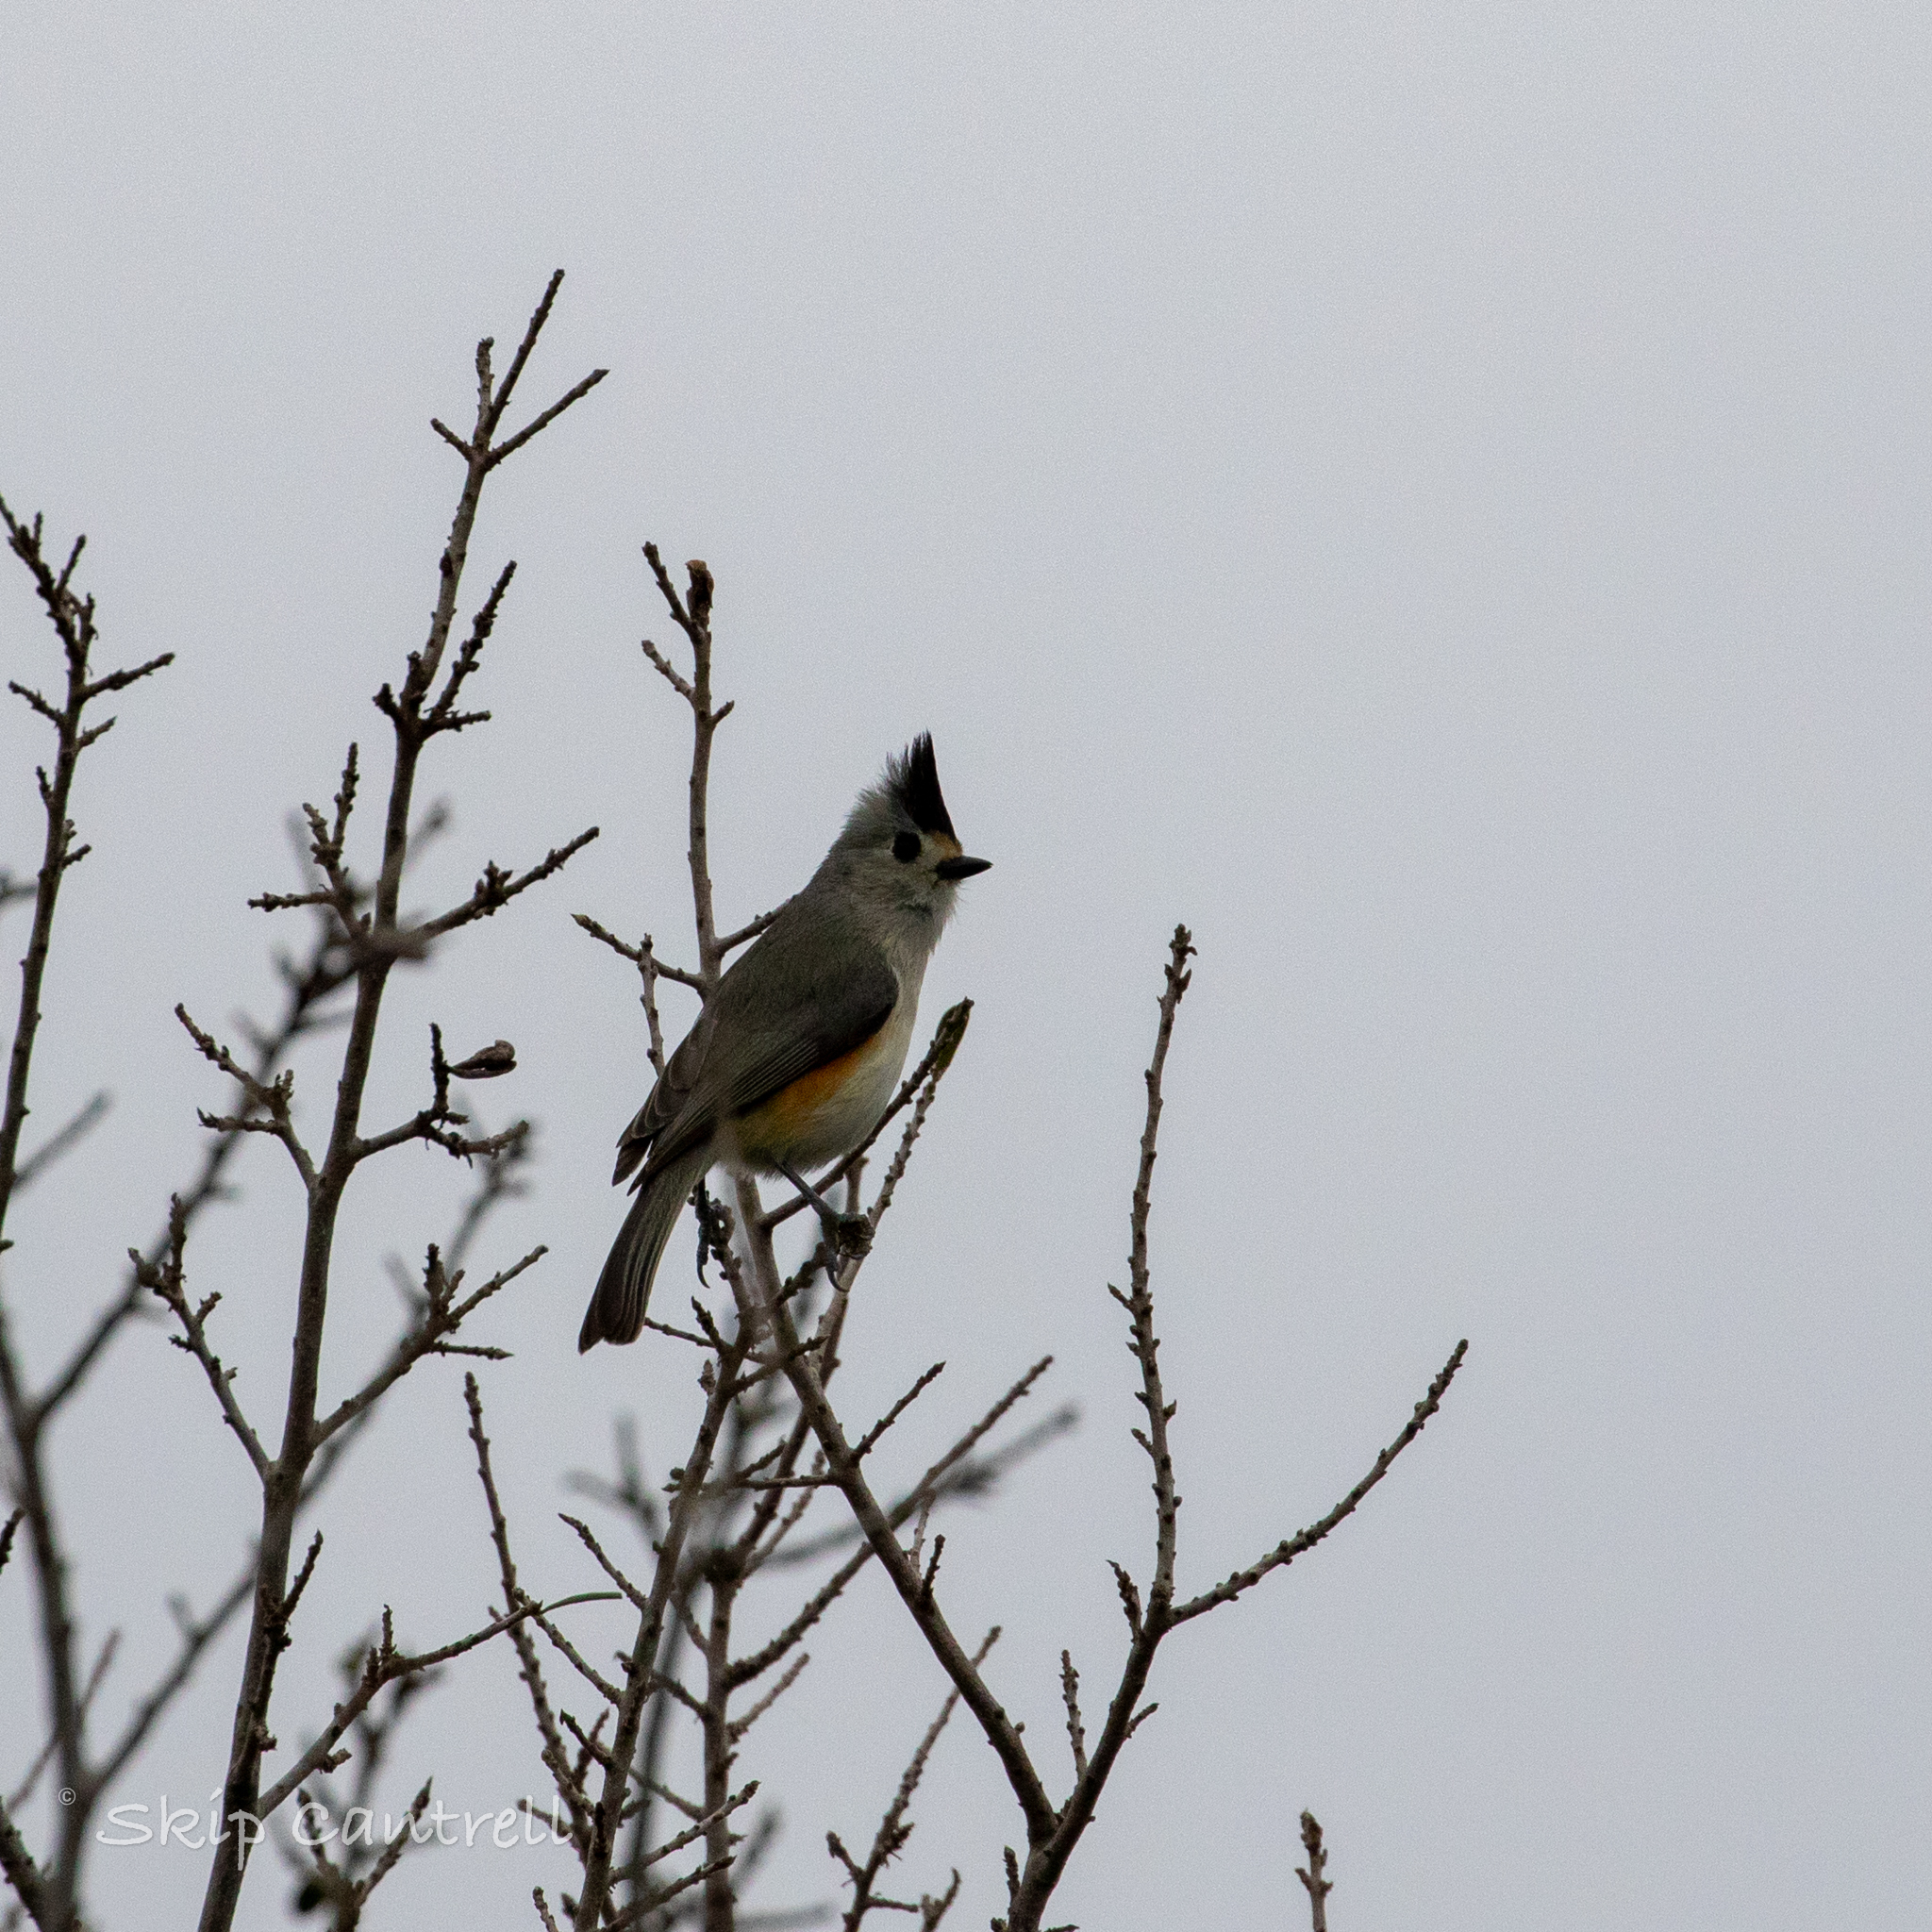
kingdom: Animalia
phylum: Chordata
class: Aves
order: Passeriformes
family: Paridae
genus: Baeolophus
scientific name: Baeolophus atricristatus
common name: Black-crested titmouse
